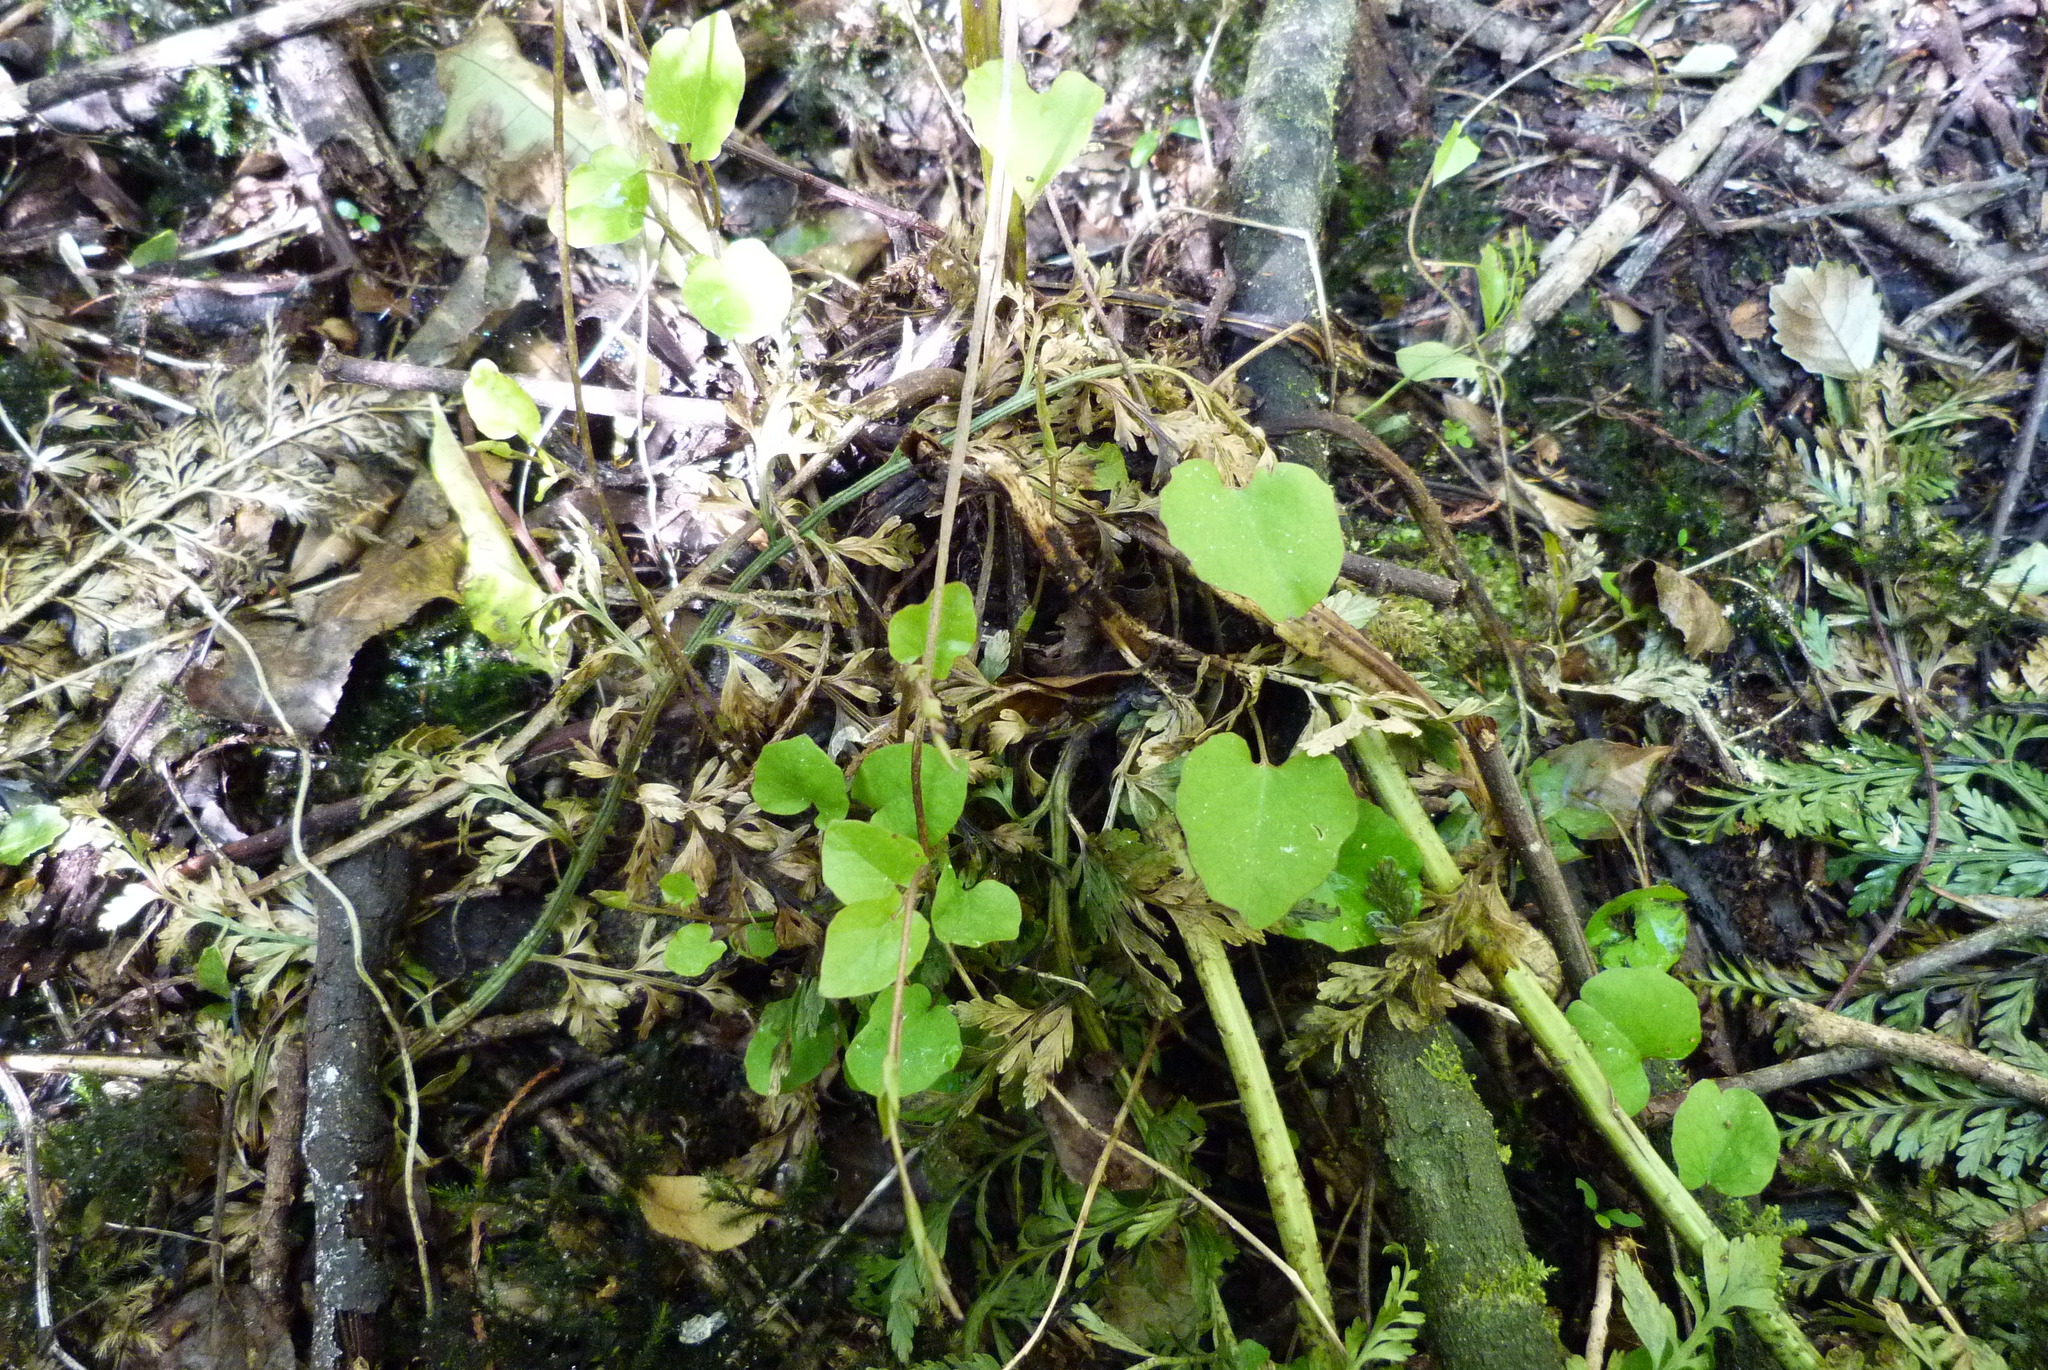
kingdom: Plantae
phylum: Tracheophyta
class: Magnoliopsida
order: Solanales
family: Convolvulaceae
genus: Calystegia
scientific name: Calystegia tuguriorum
